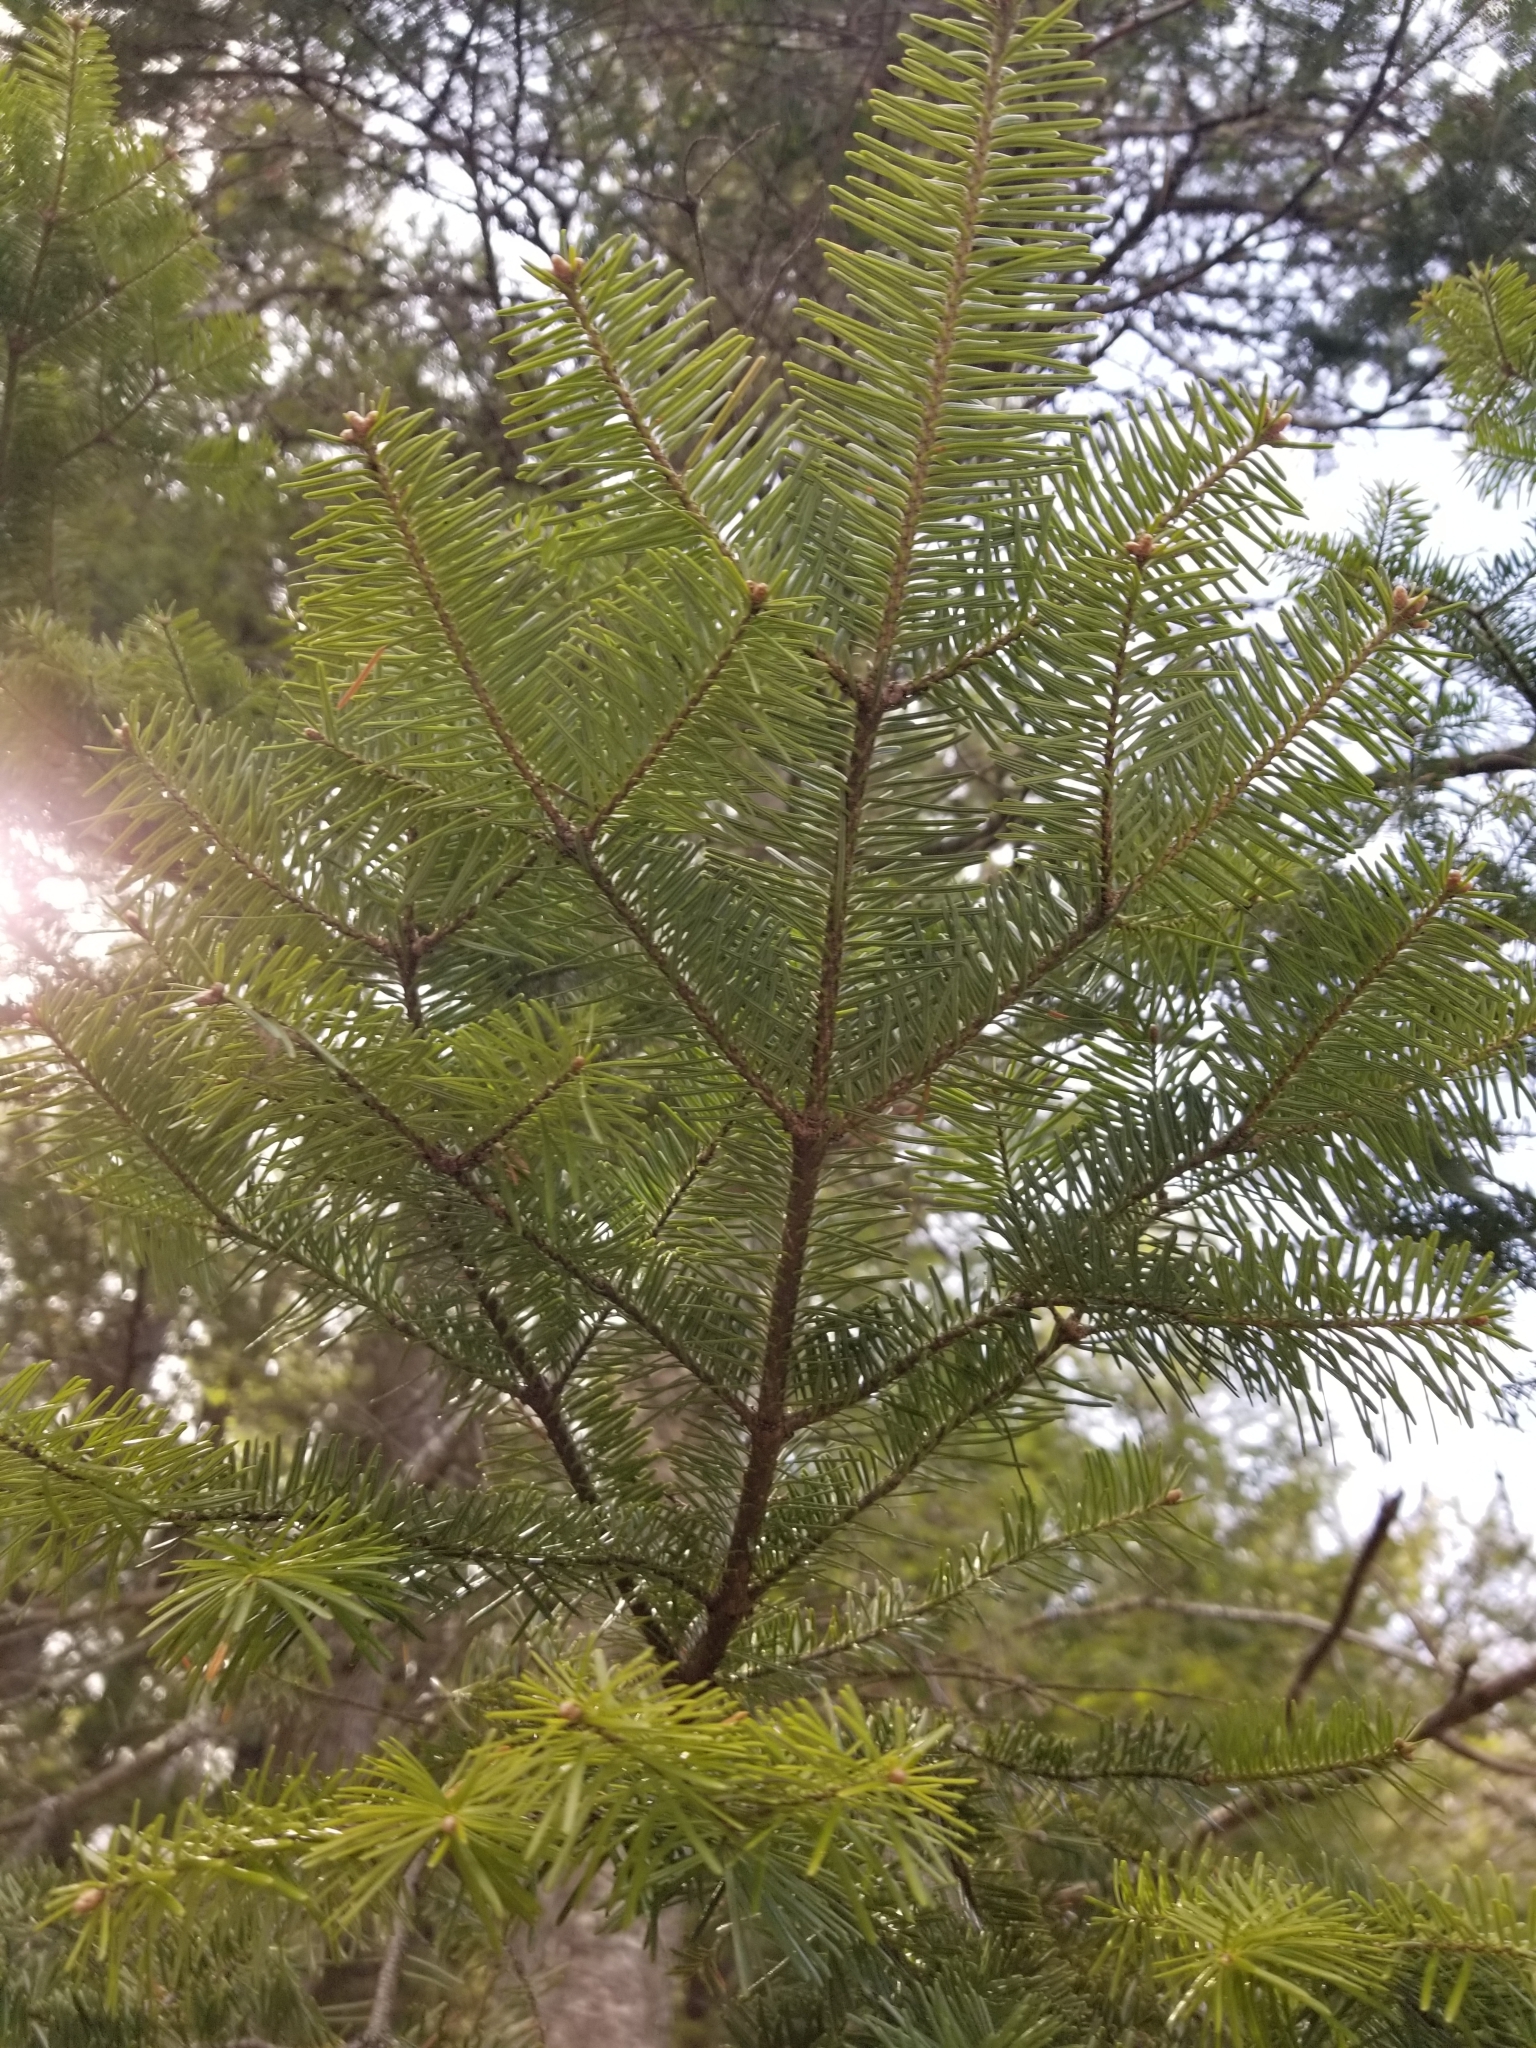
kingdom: Plantae
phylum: Tracheophyta
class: Pinopsida
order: Pinales
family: Pinaceae
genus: Abies
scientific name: Abies balsamea
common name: Balsam fir
